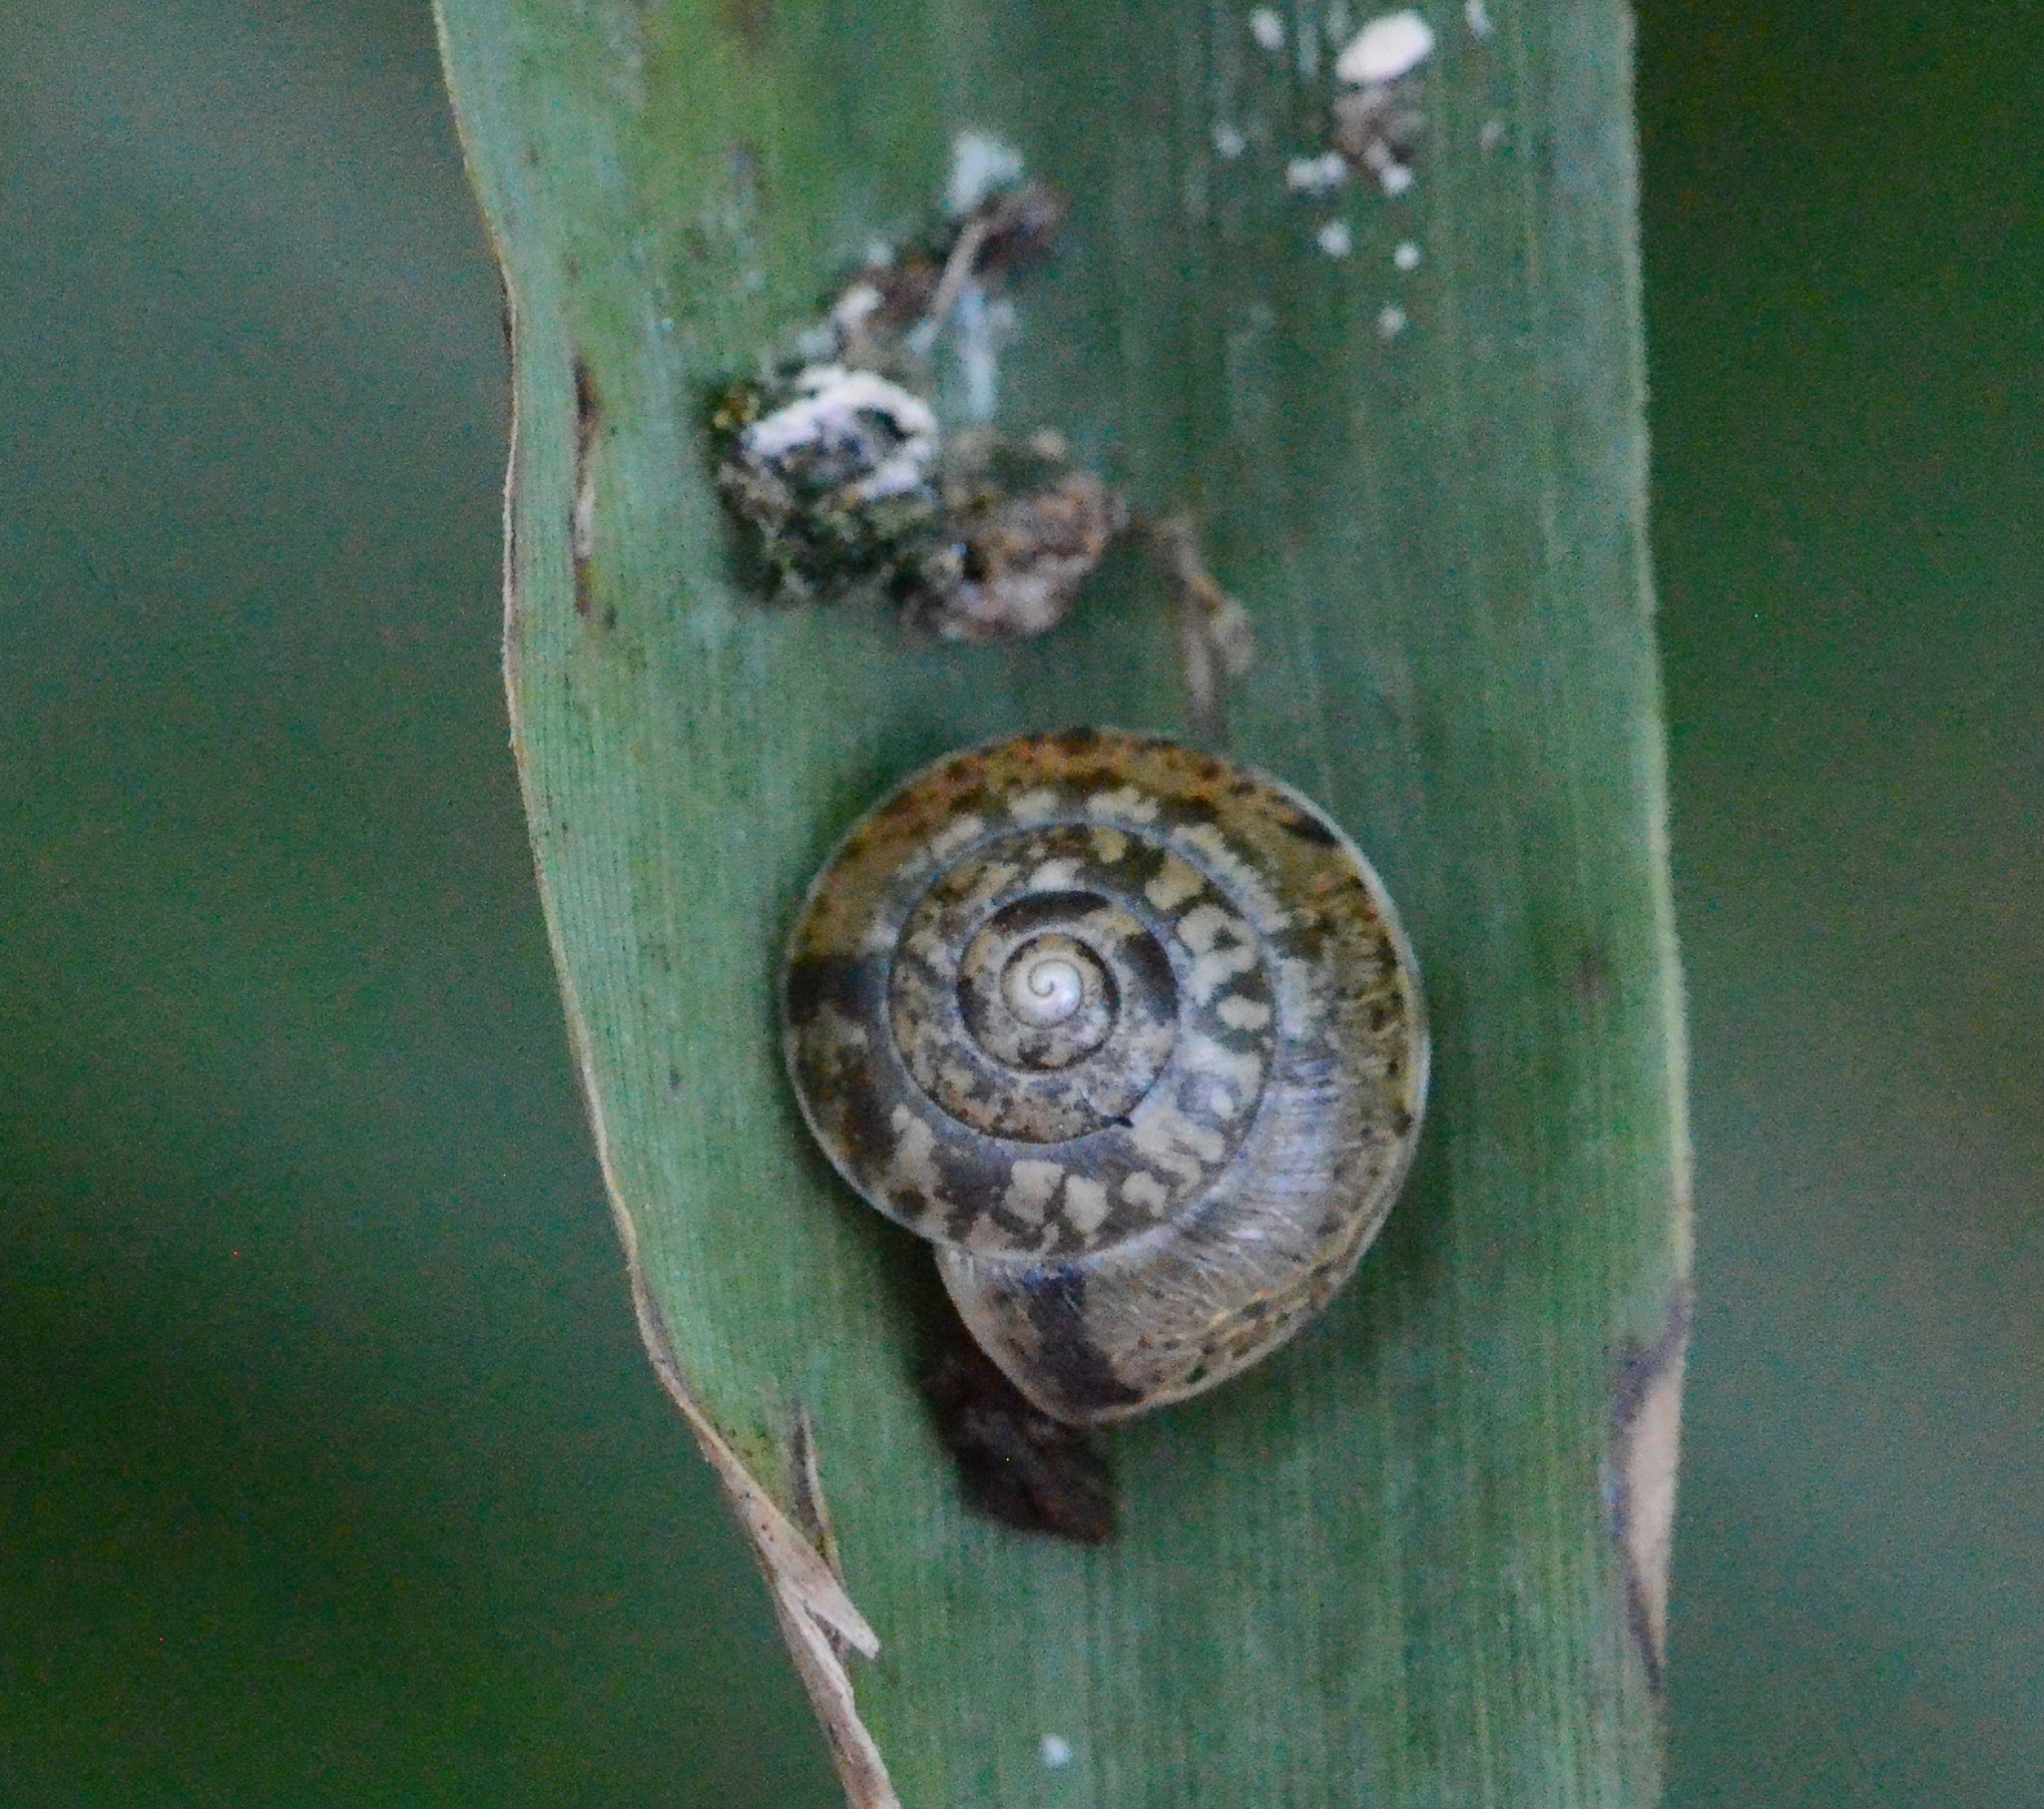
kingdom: Animalia
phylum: Mollusca
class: Gastropoda
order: Stylommatophora
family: Hygromiidae
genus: Hygromia
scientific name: Hygromia cinctella
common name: Girdled snail
